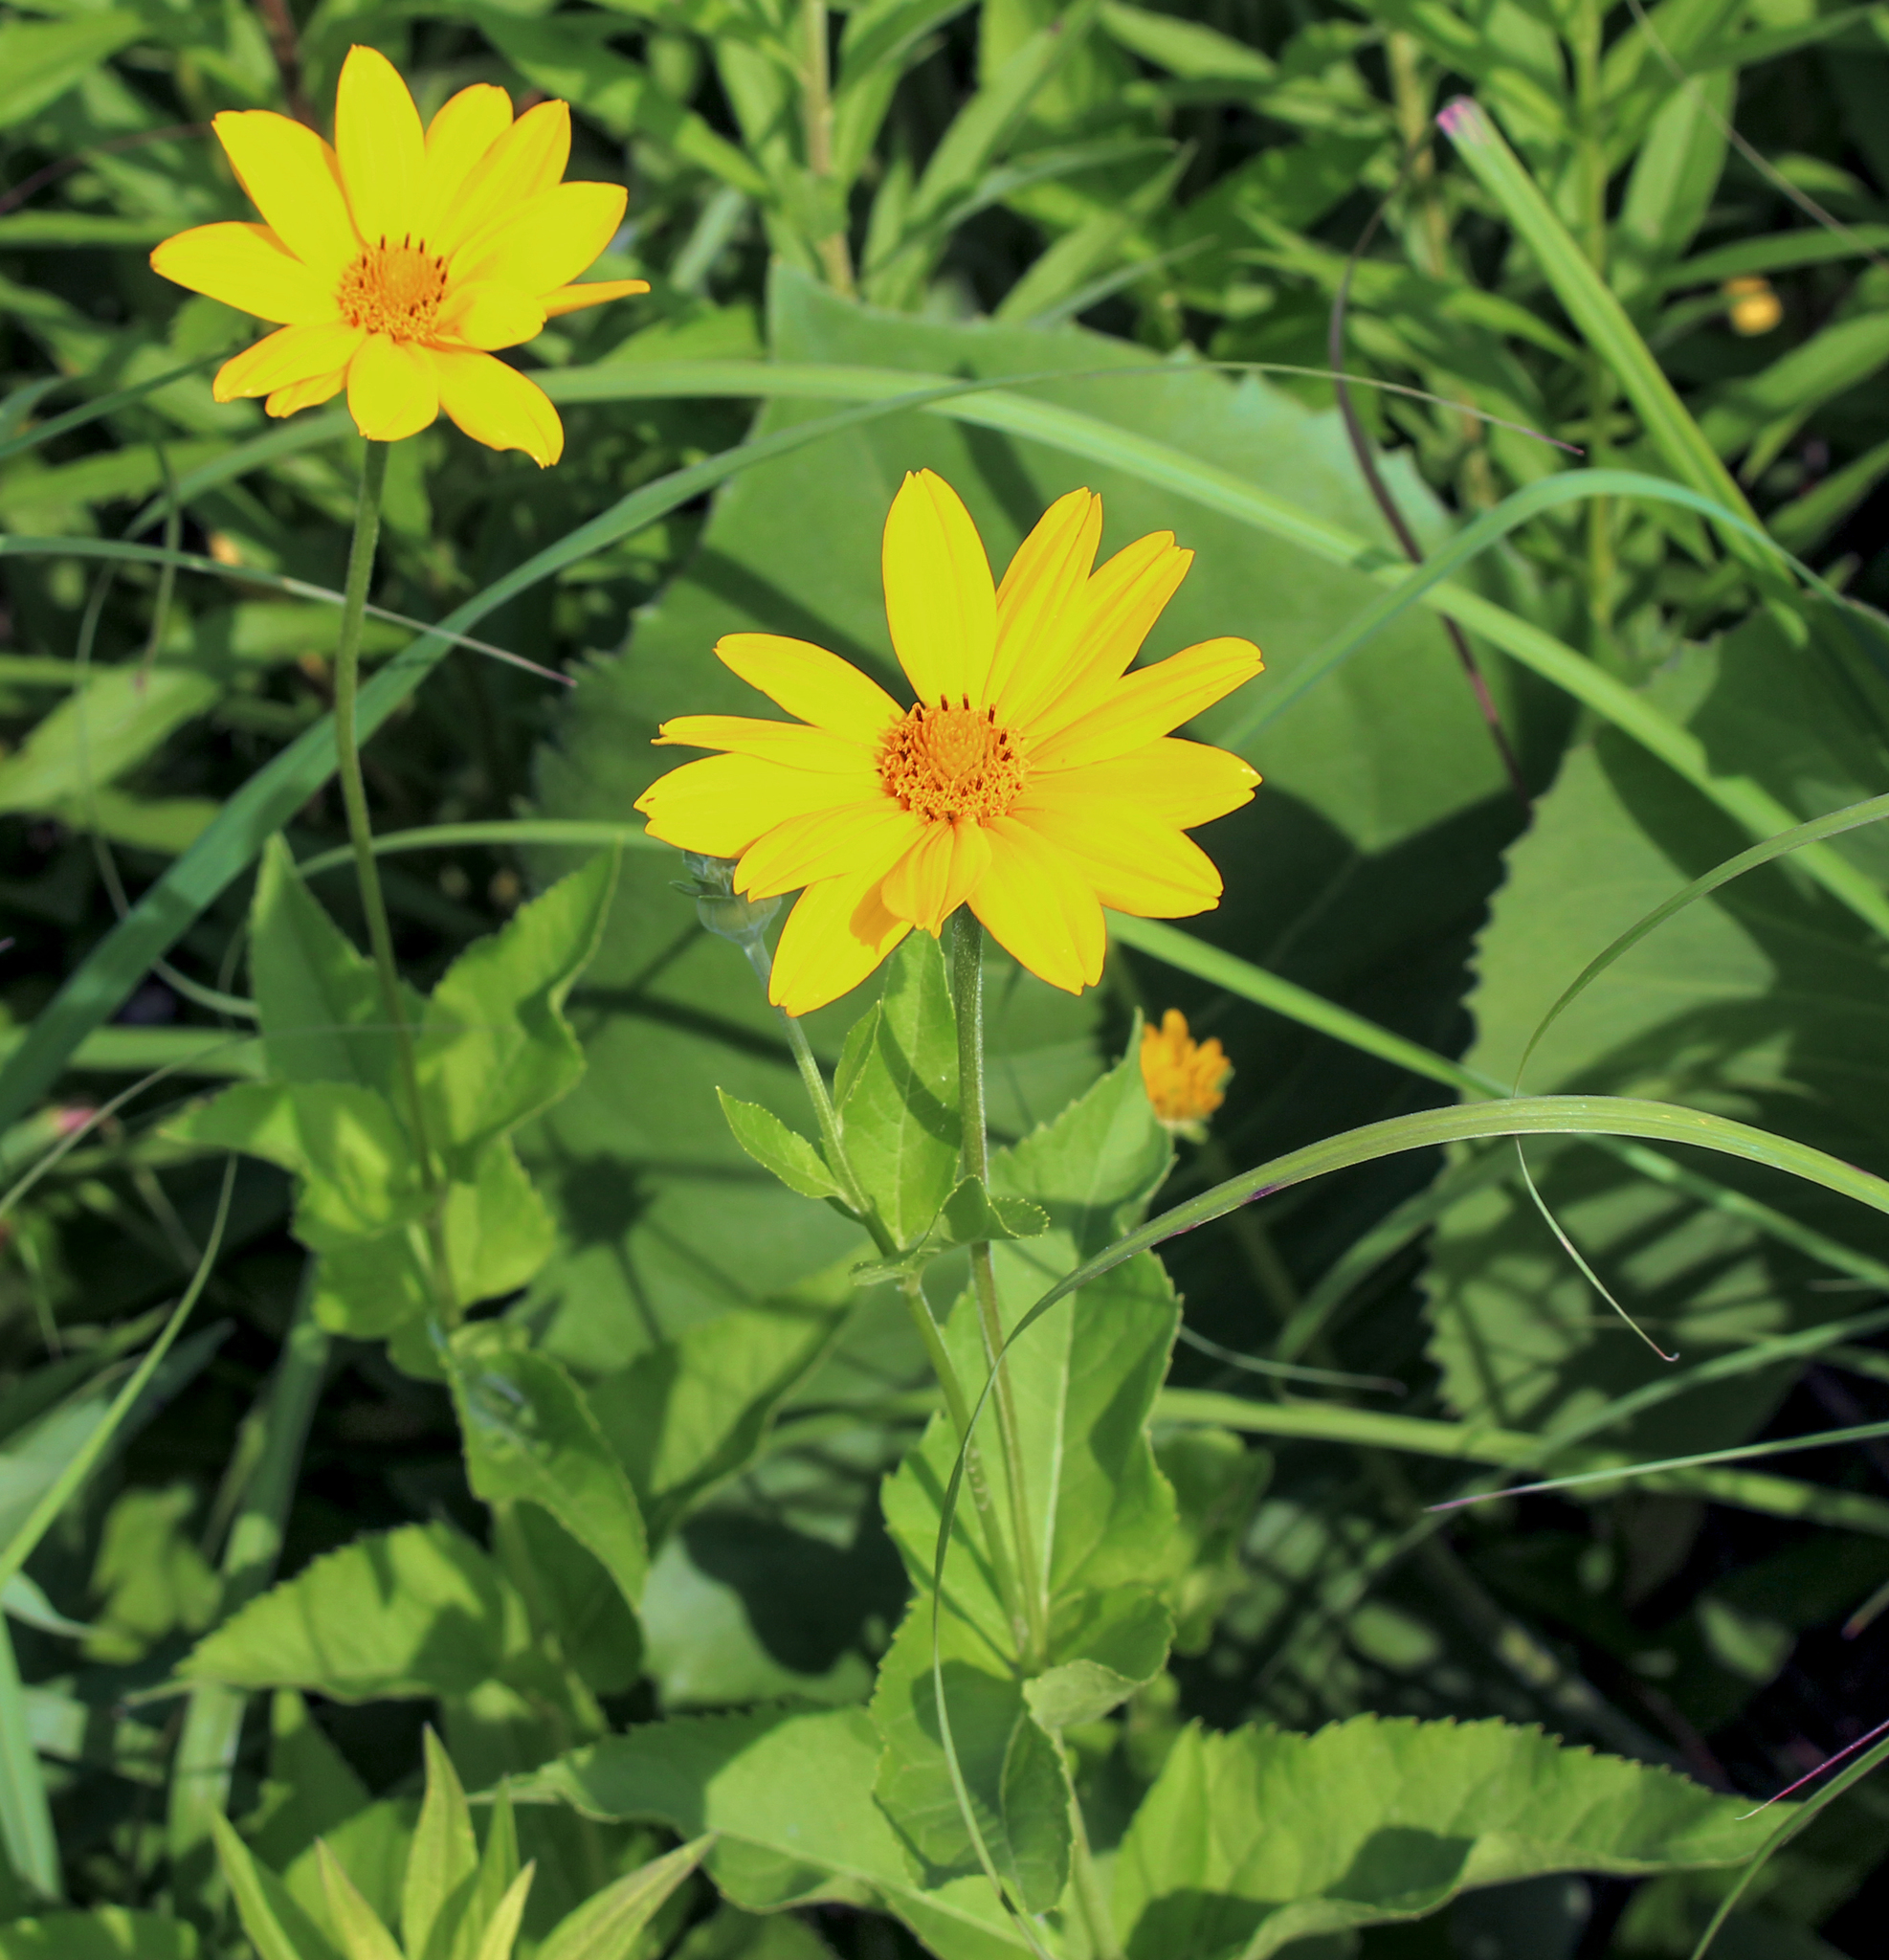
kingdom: Plantae
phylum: Tracheophyta
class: Magnoliopsida
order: Asterales
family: Asteraceae
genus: Heliopsis
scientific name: Heliopsis helianthoides
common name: False sunflower
